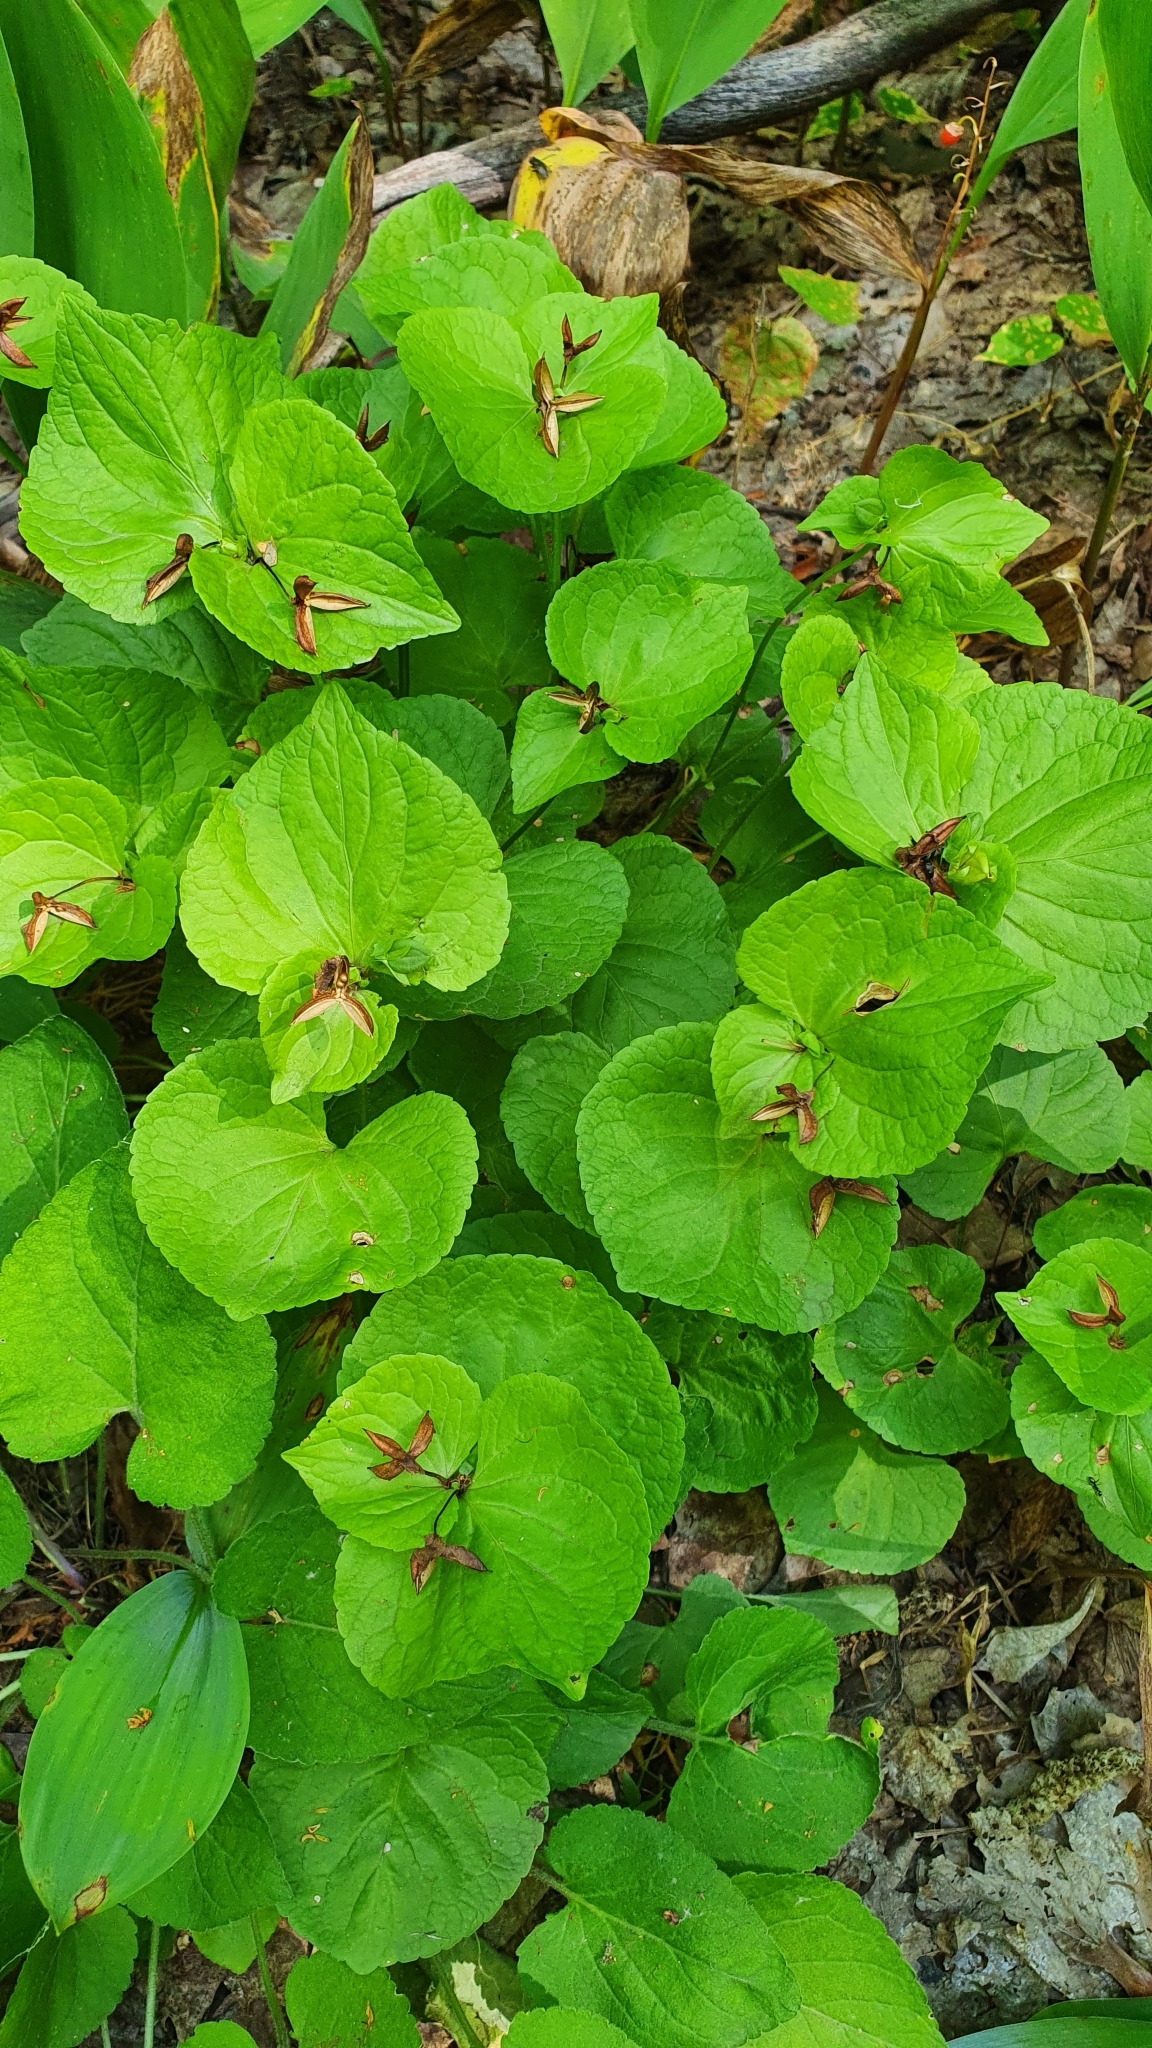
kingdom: Plantae
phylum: Tracheophyta
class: Magnoliopsida
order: Malpighiales
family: Violaceae
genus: Viola
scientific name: Viola mirabilis
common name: Wonder violet
